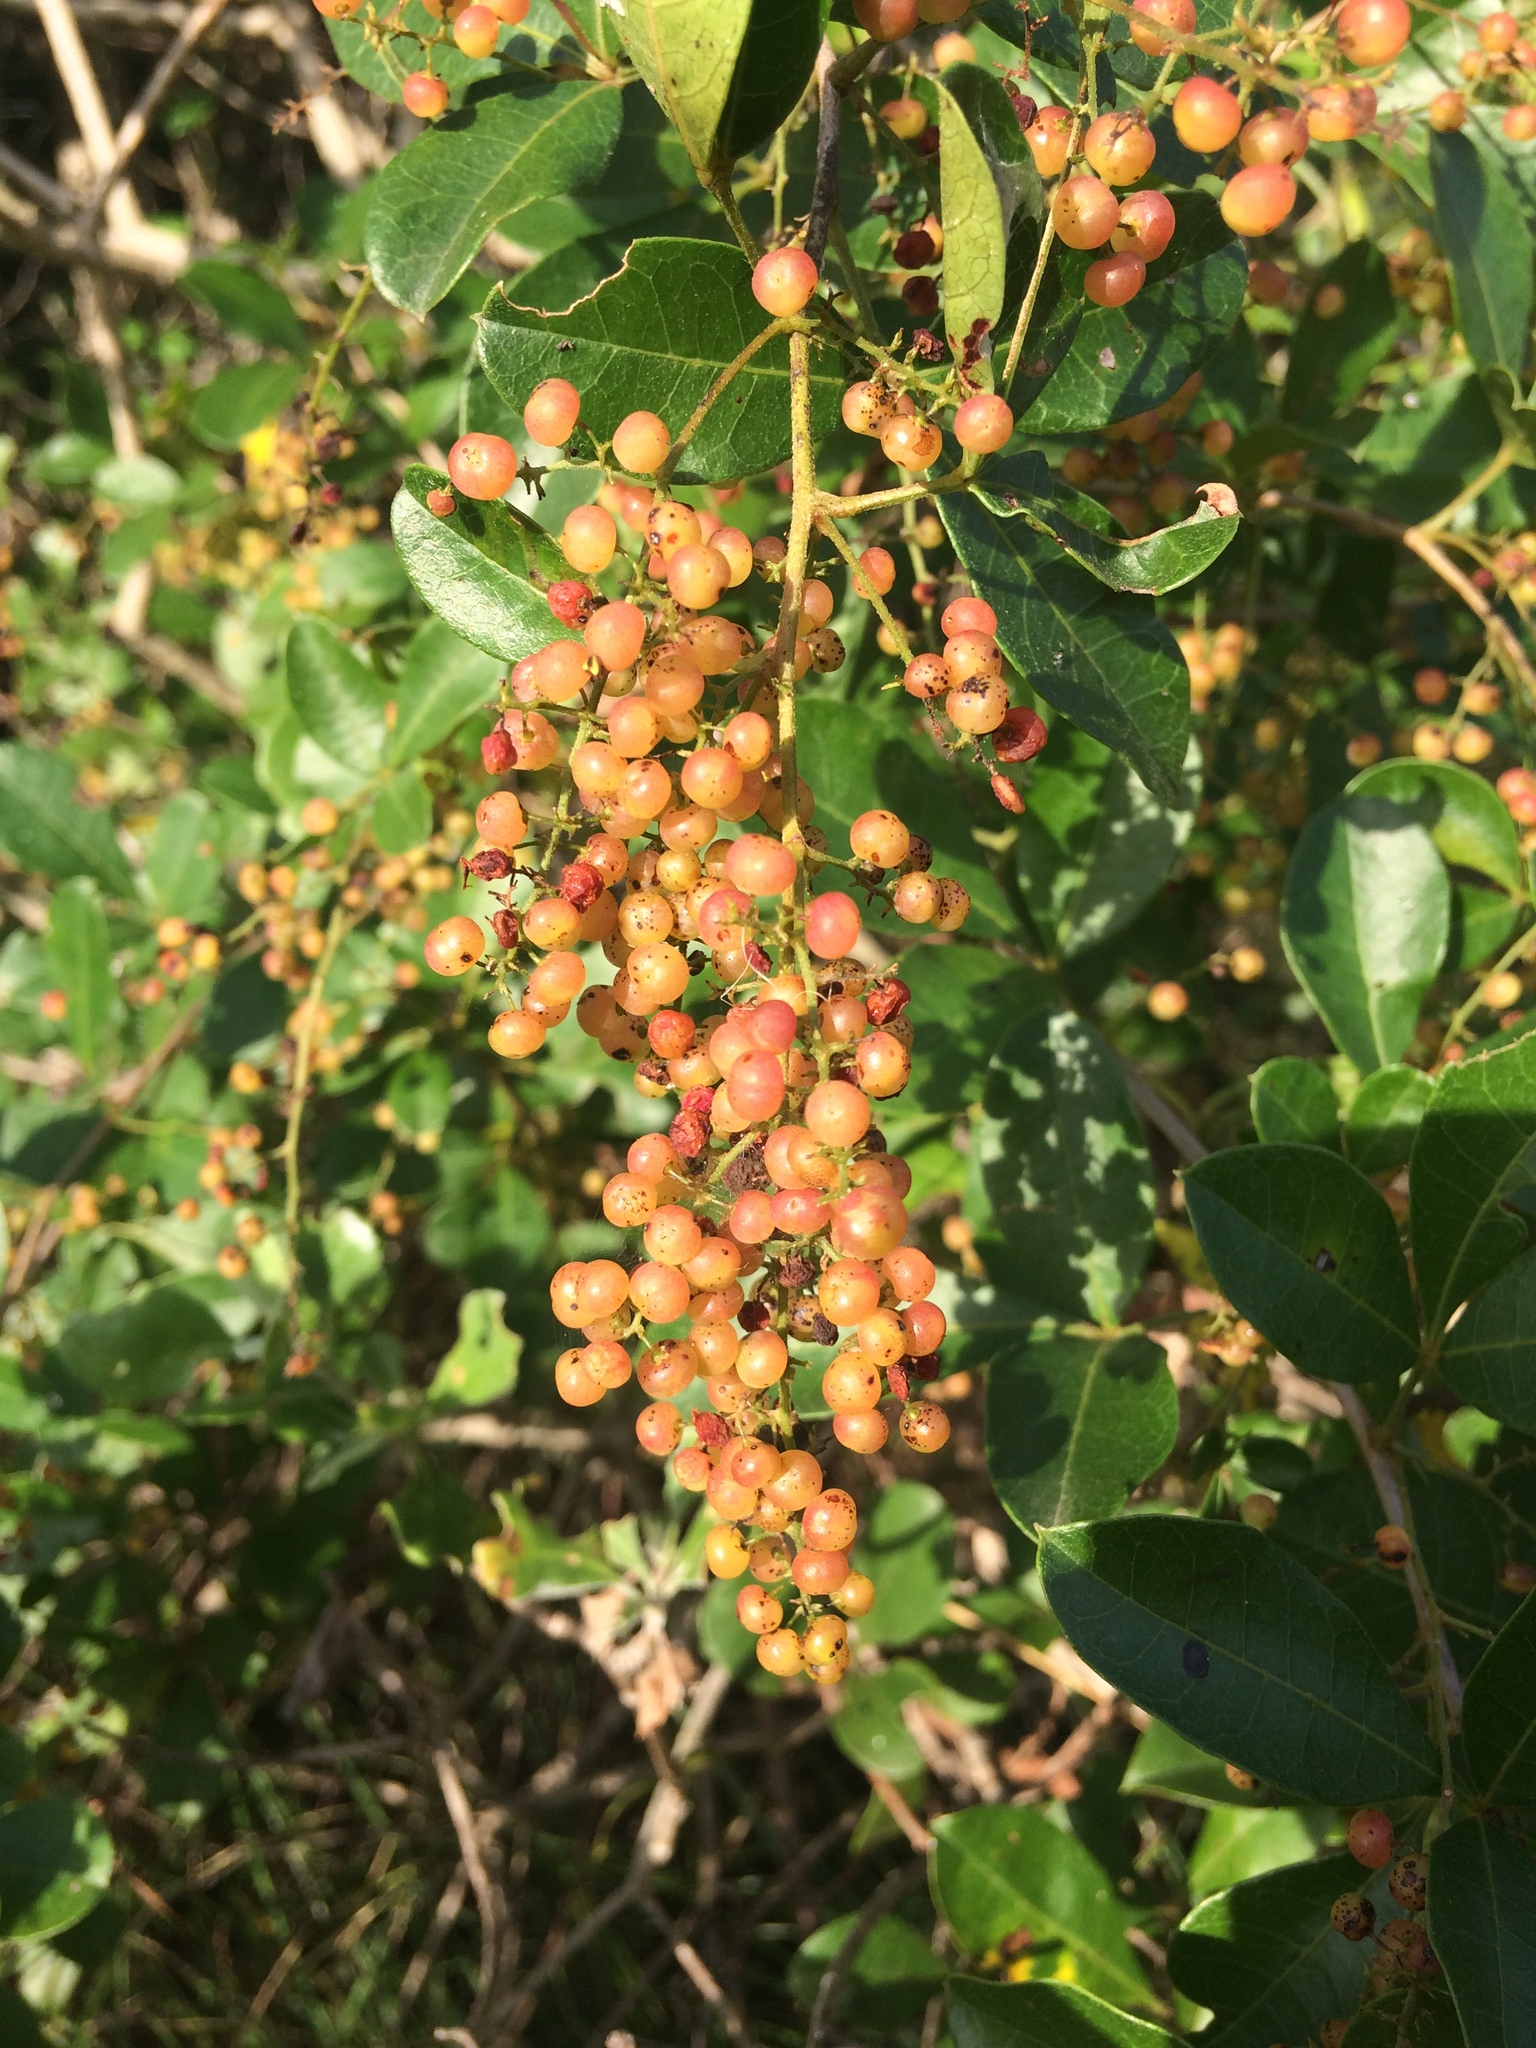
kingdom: Plantae
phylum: Tracheophyta
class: Magnoliopsida
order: Sapindales
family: Anacardiaceae
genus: Searsia
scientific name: Searsia nebulosa
